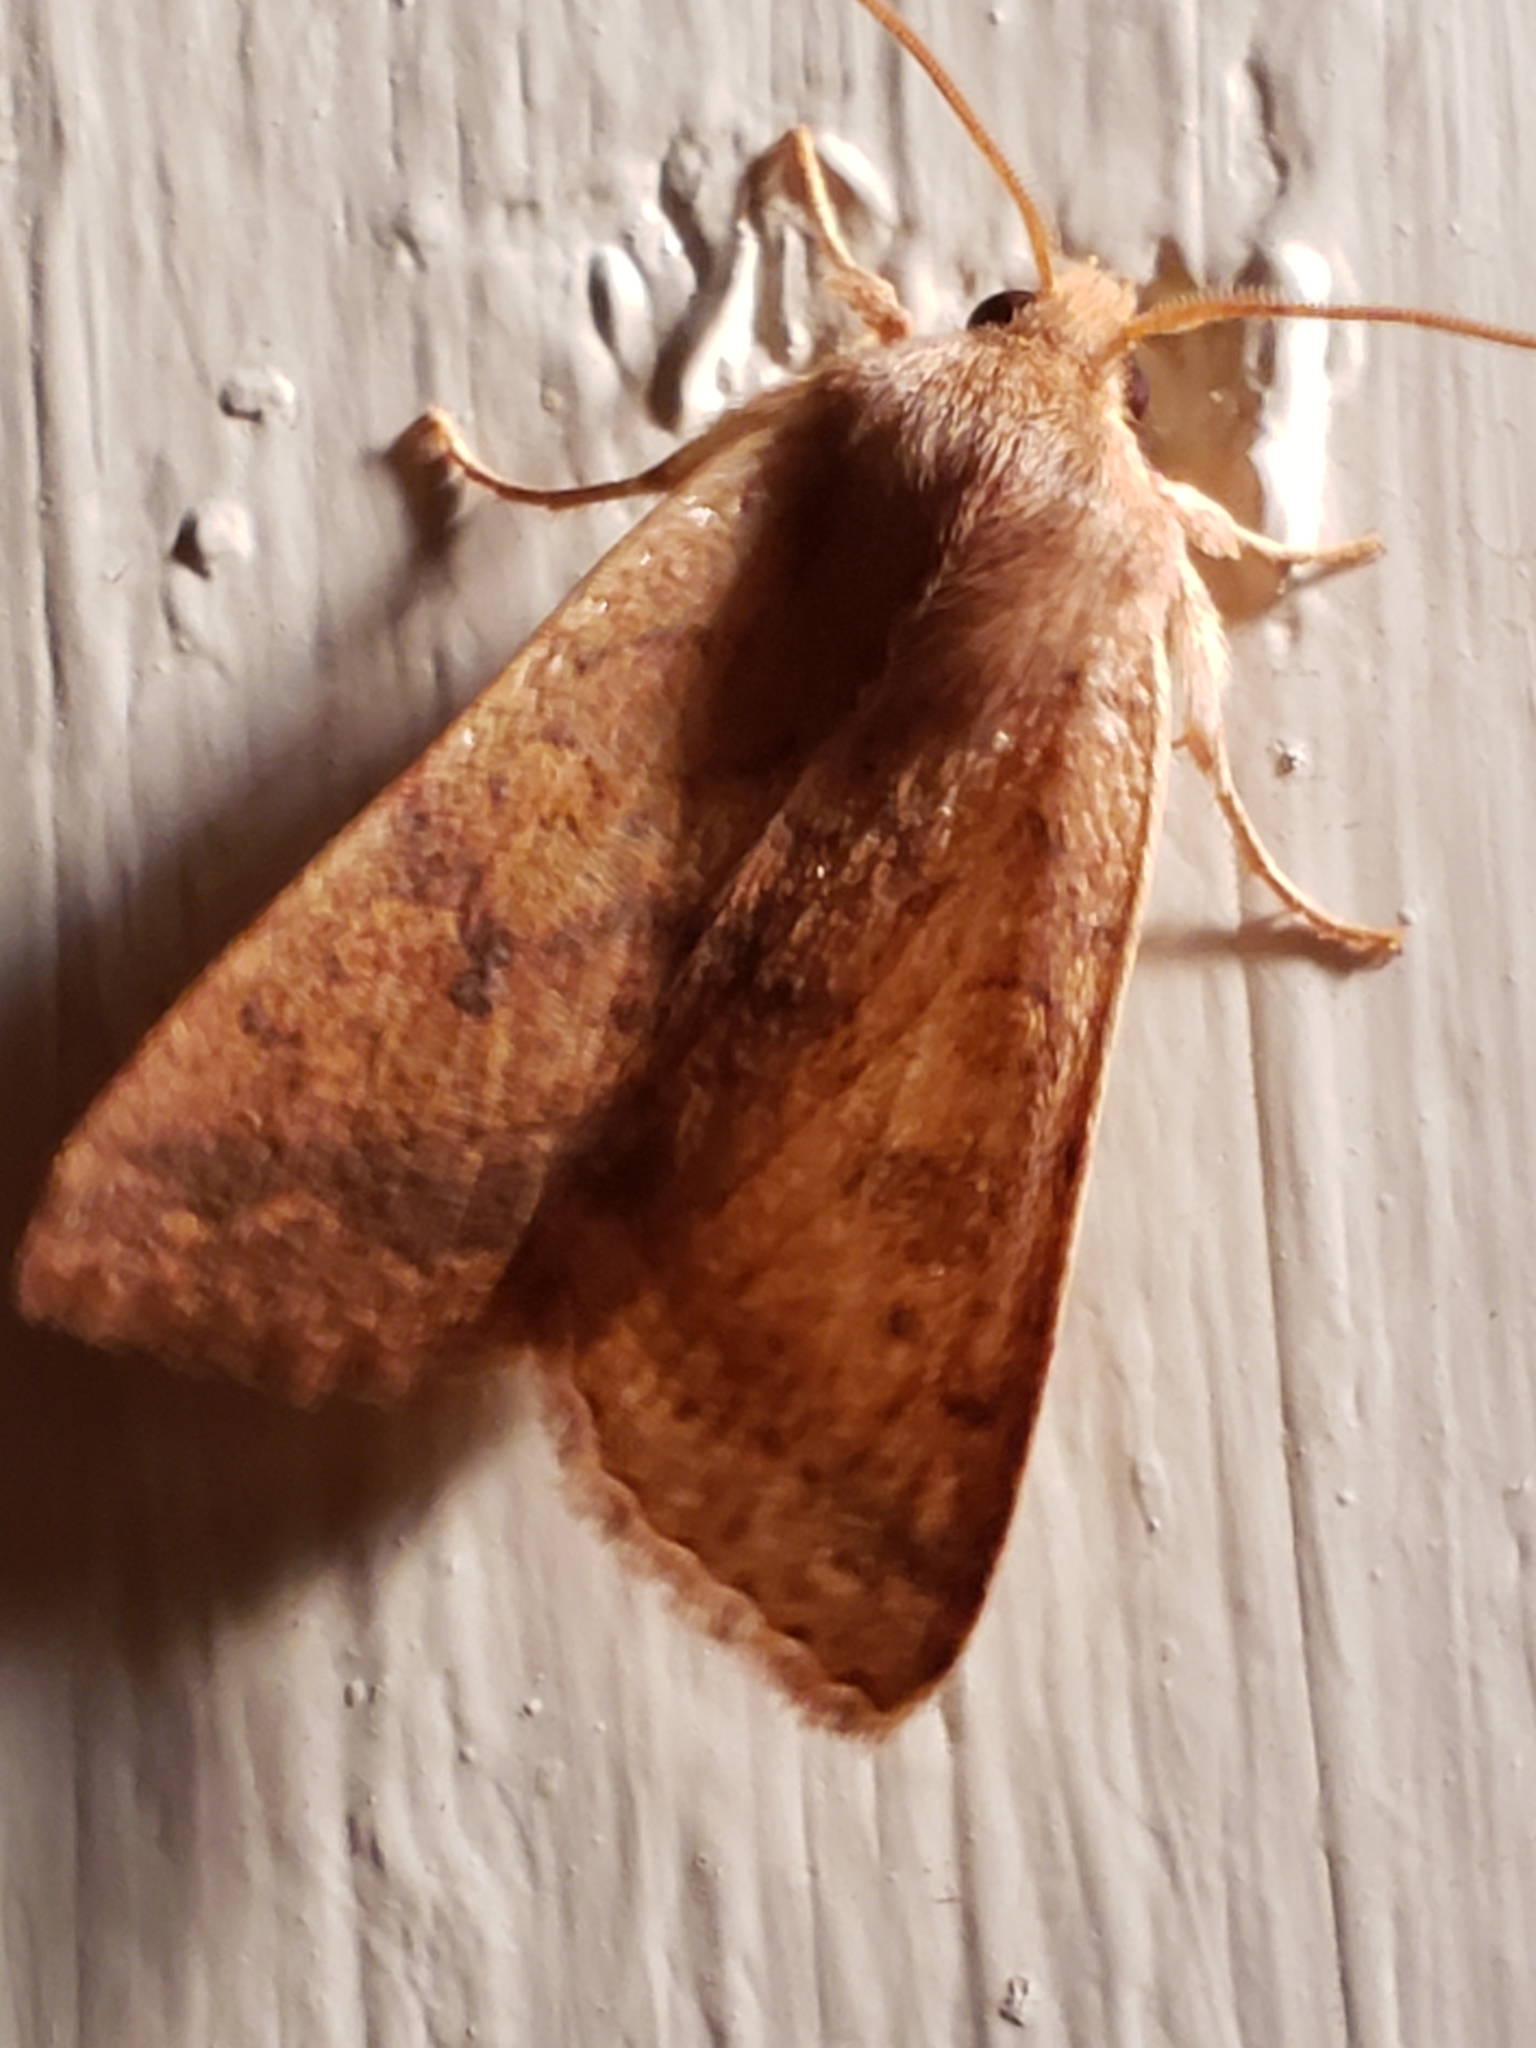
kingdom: Animalia
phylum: Arthropoda
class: Insecta
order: Lepidoptera
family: Noctuidae
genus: Agrochola
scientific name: Agrochola bicolorago
